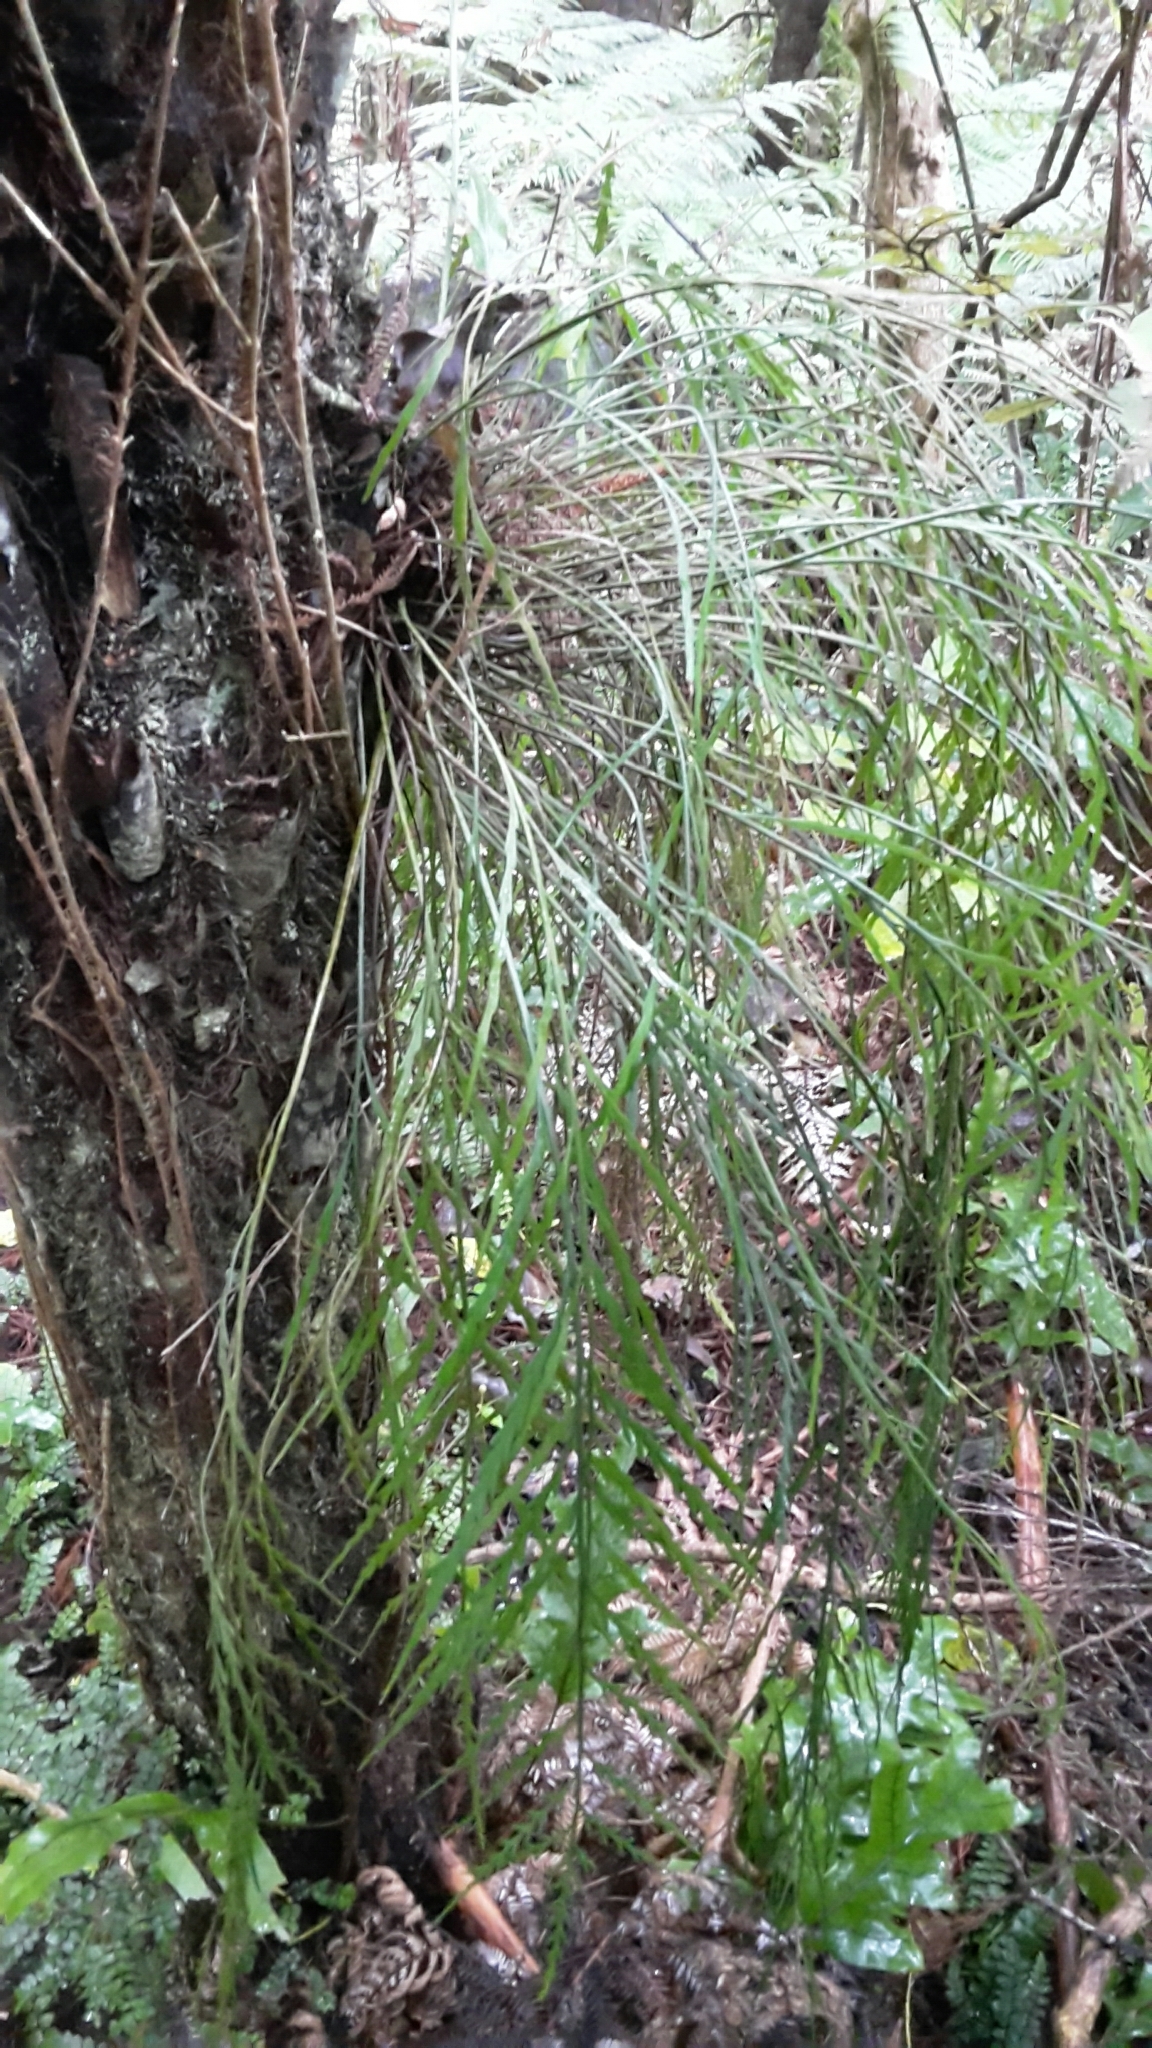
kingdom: Plantae
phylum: Tracheophyta
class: Polypodiopsida
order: Polypodiales
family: Aspleniaceae
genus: Asplenium
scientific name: Asplenium flaccidum
